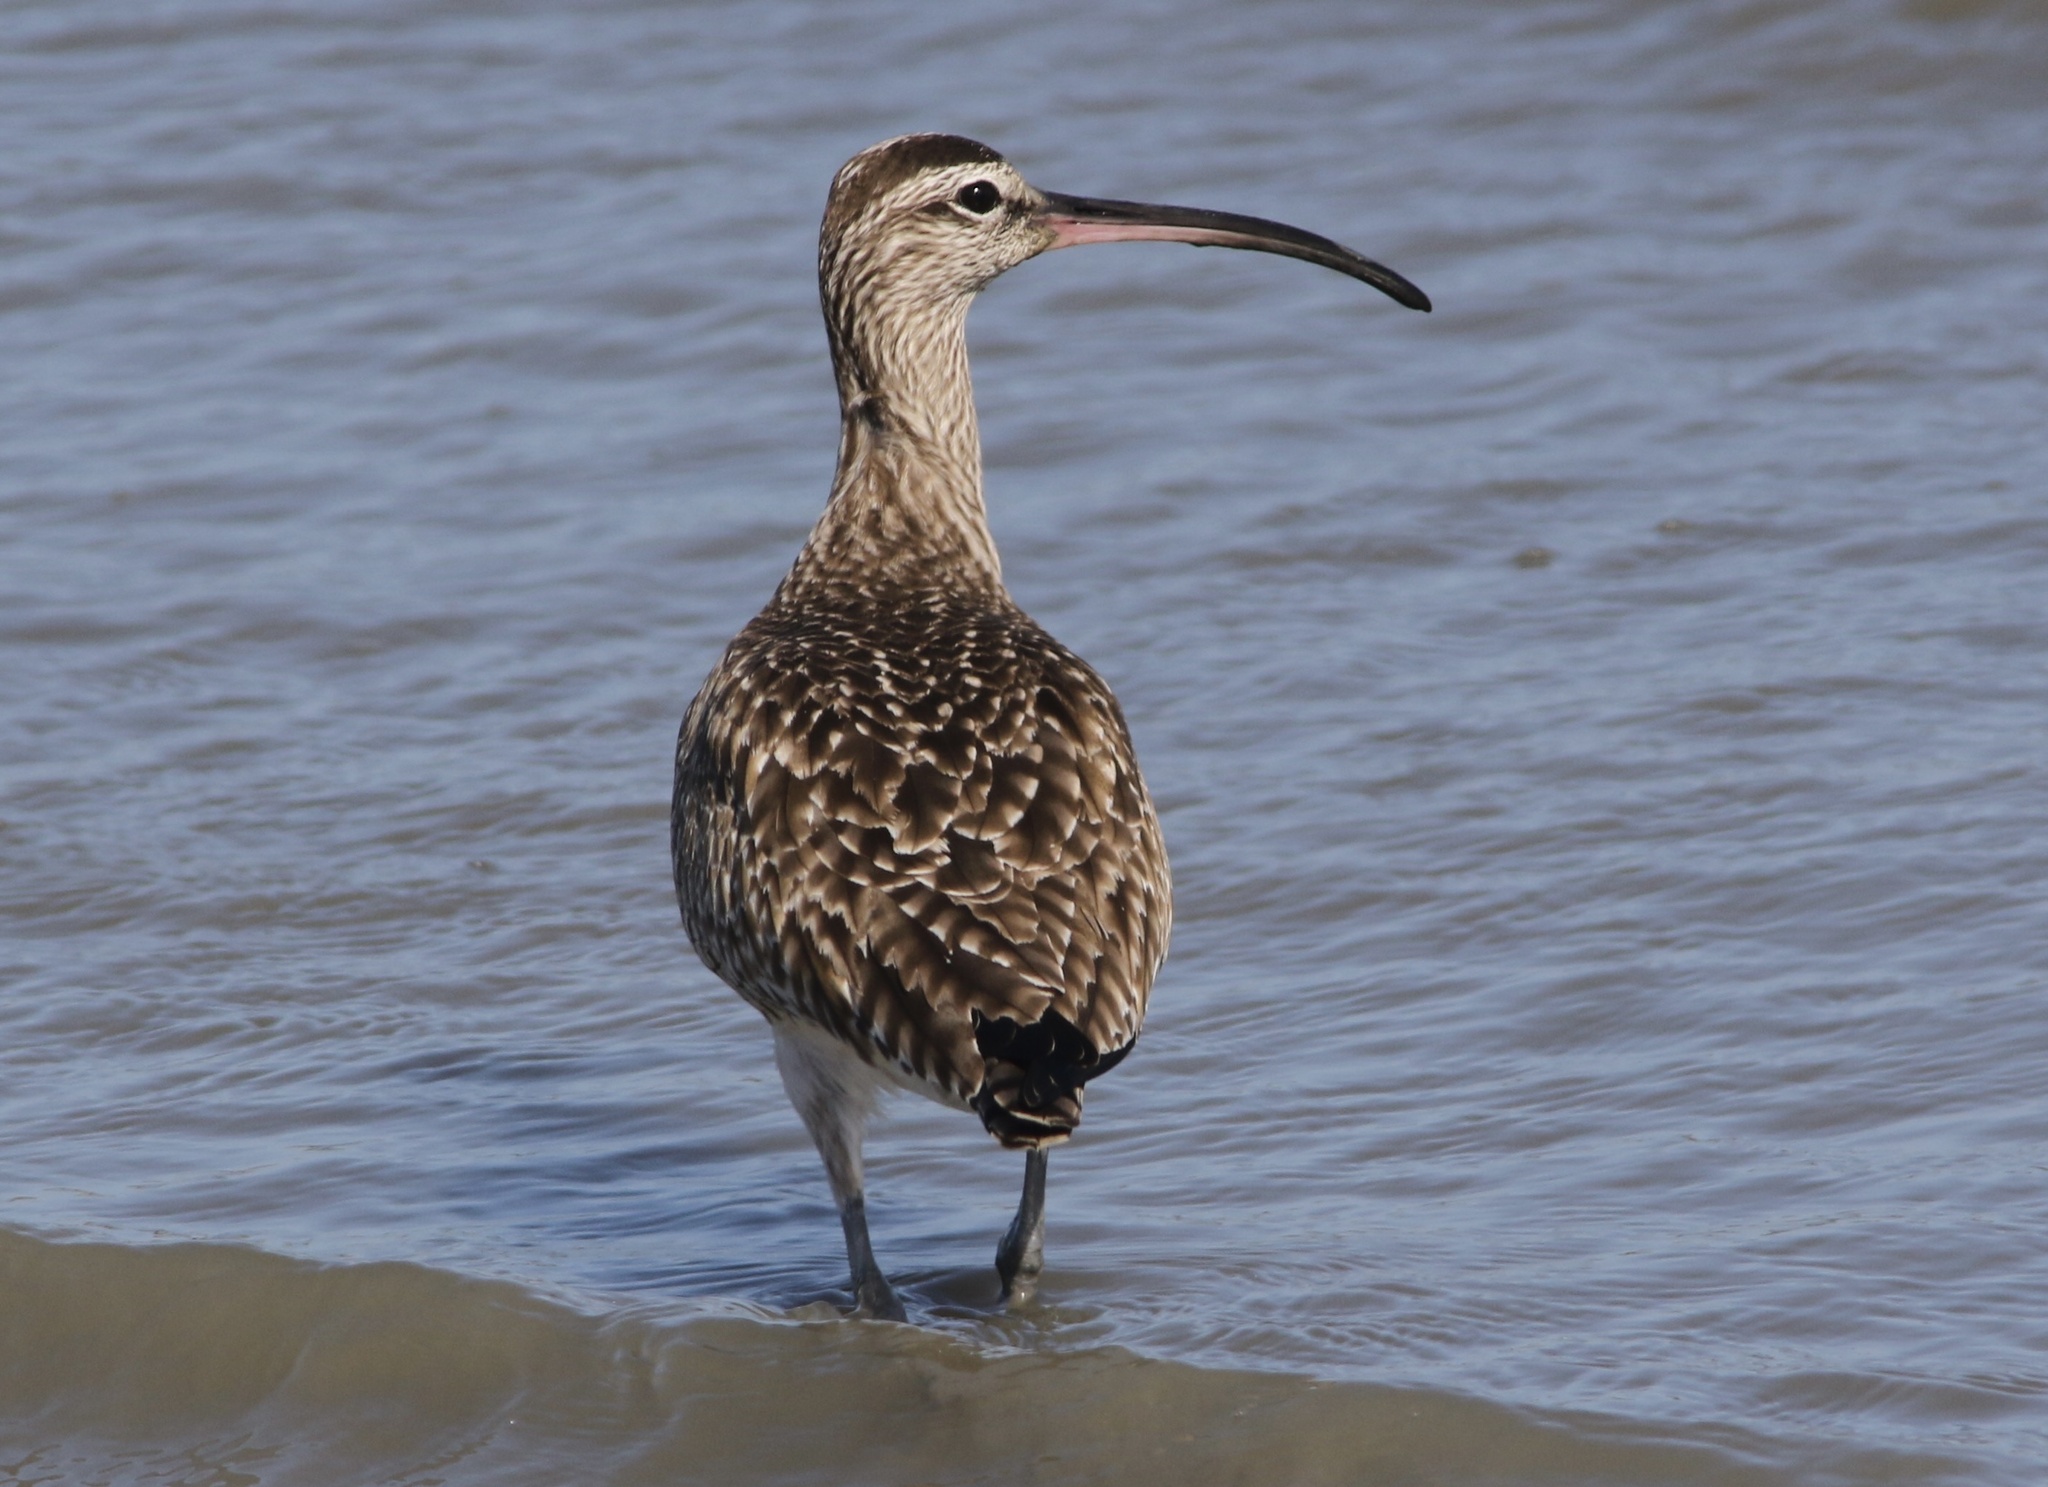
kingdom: Animalia
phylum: Chordata
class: Aves
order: Charadriiformes
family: Scolopacidae
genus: Numenius
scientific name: Numenius phaeopus
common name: Whimbrel
